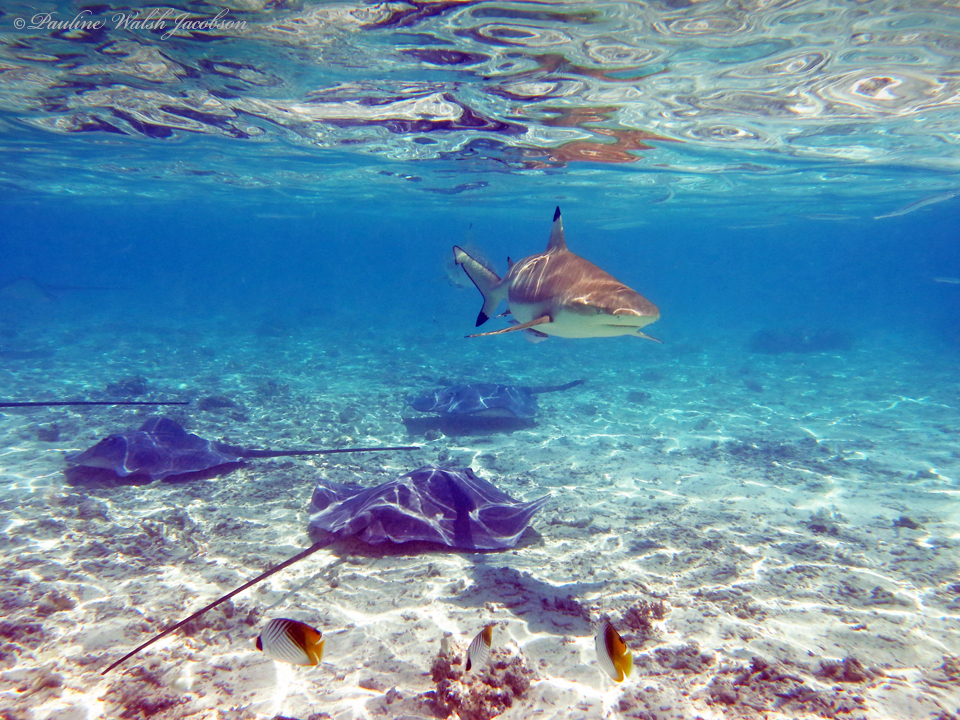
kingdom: Animalia
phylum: Chordata
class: Elasmobranchii
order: Carcharhiniformes
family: Carcharhinidae
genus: Carcharhinus
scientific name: Carcharhinus melanopterus
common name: Blacktip reef shark
